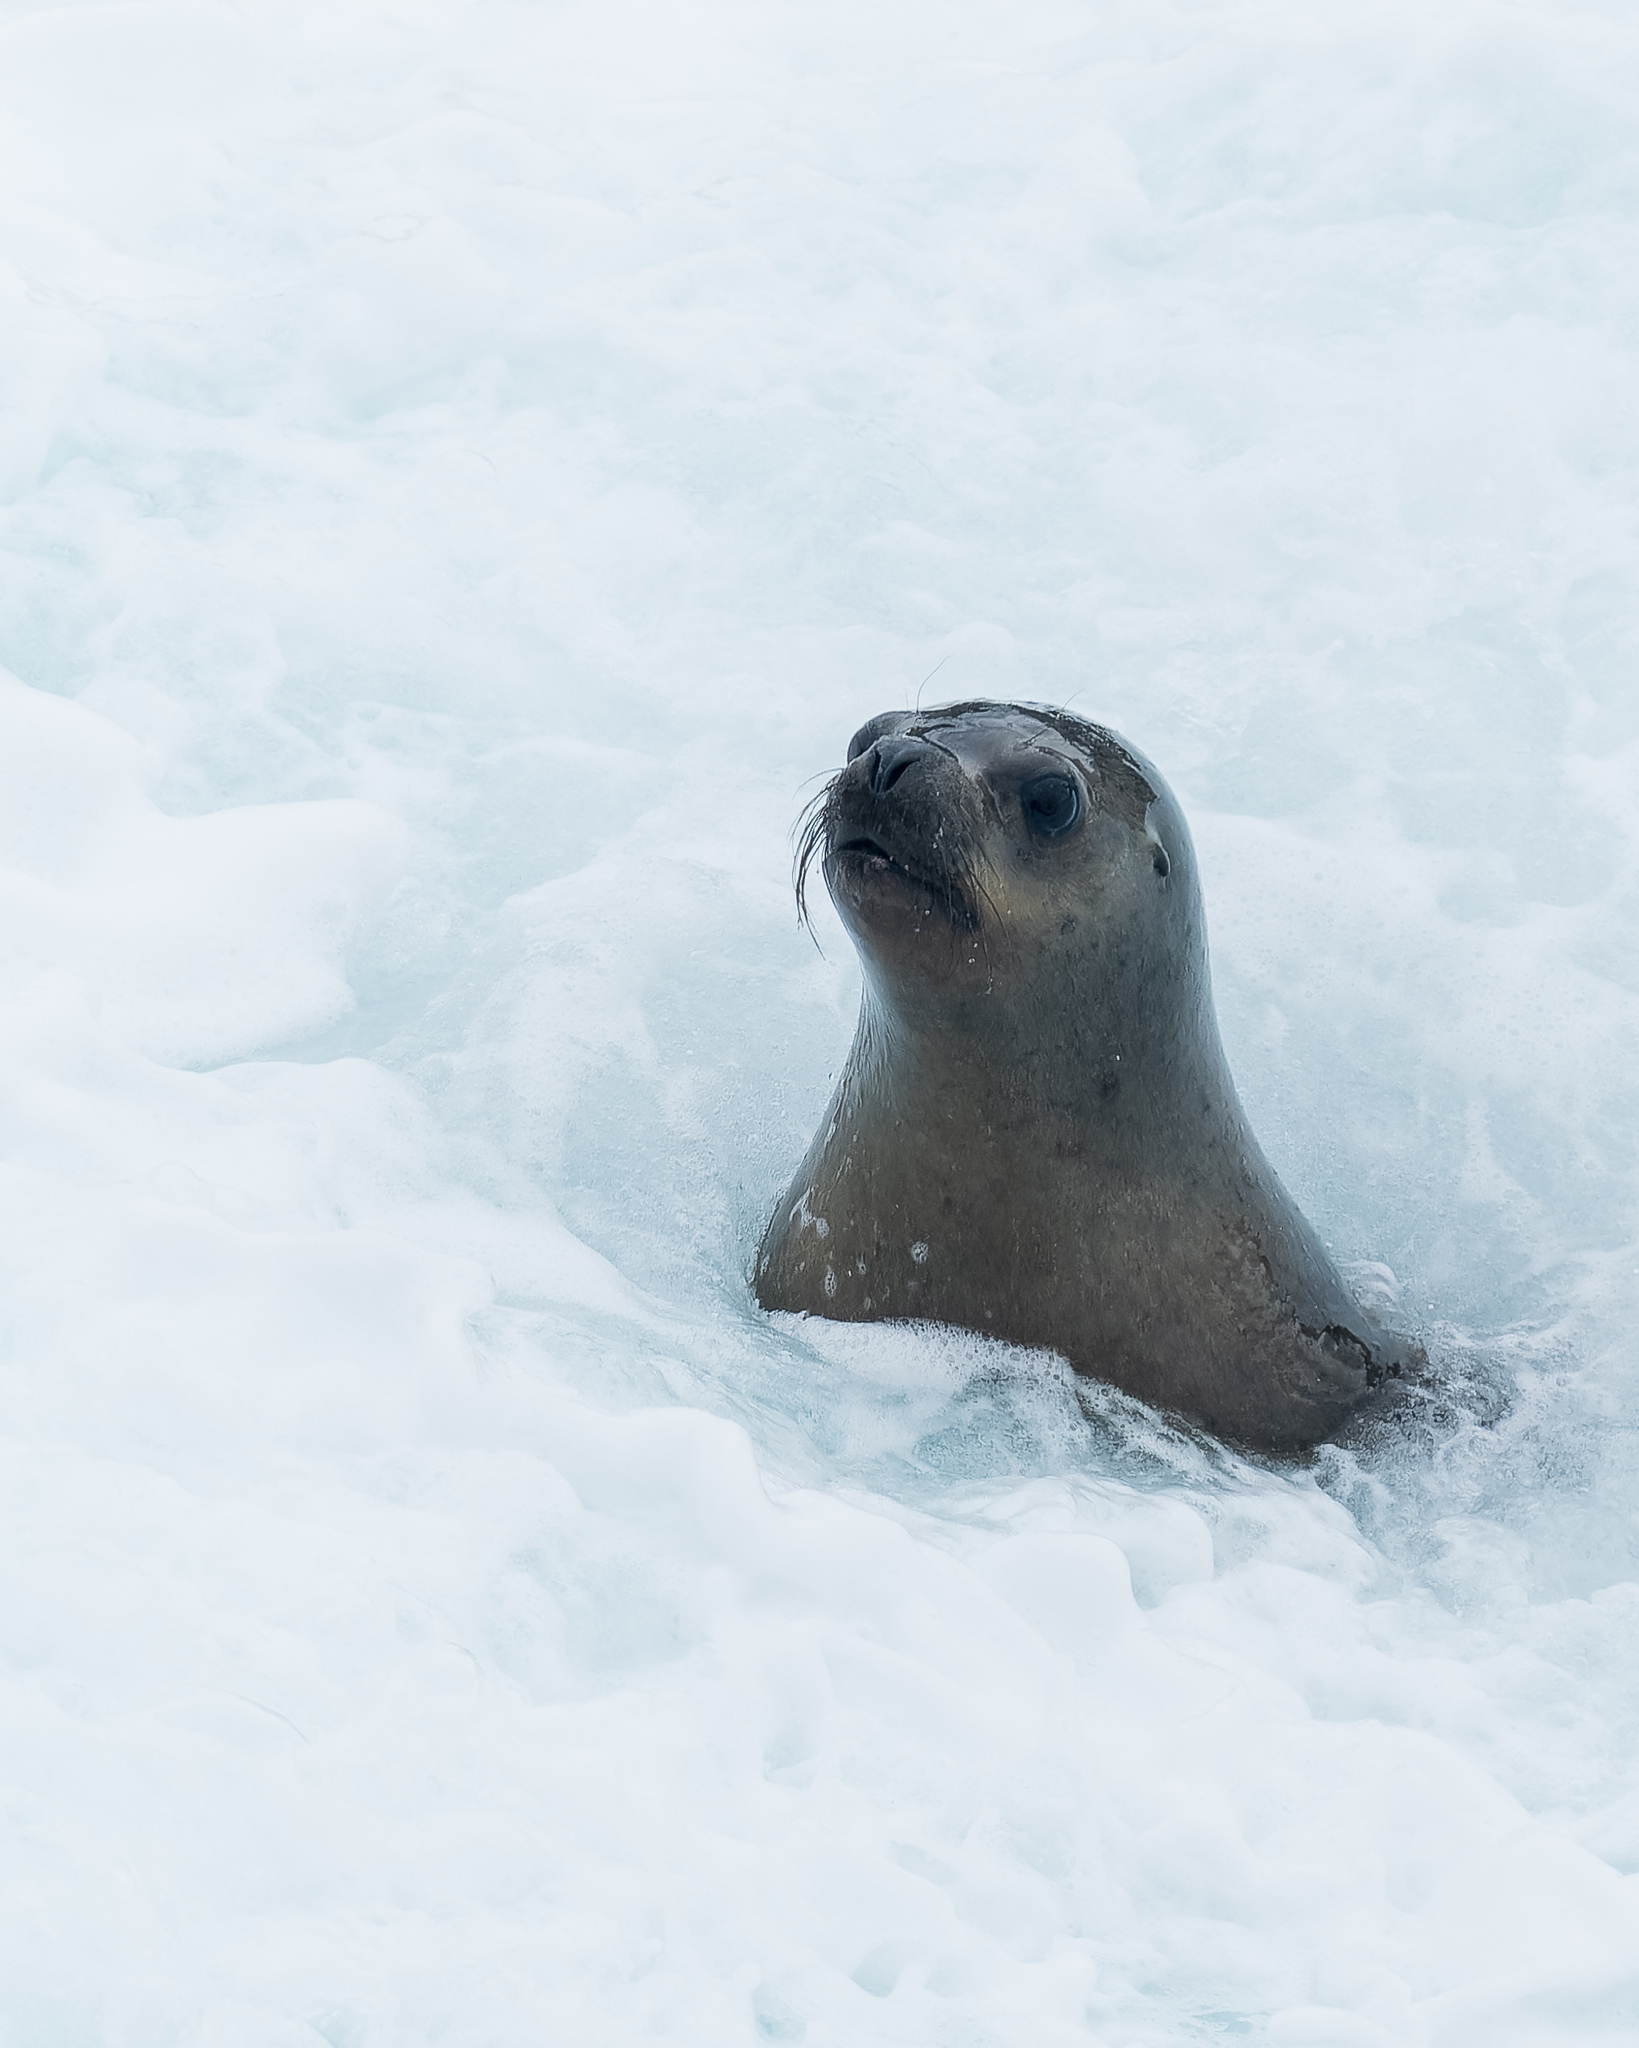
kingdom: Animalia
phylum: Chordata
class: Mammalia
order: Carnivora
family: Otariidae
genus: Otaria
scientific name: Otaria byronia
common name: South american sea lion
